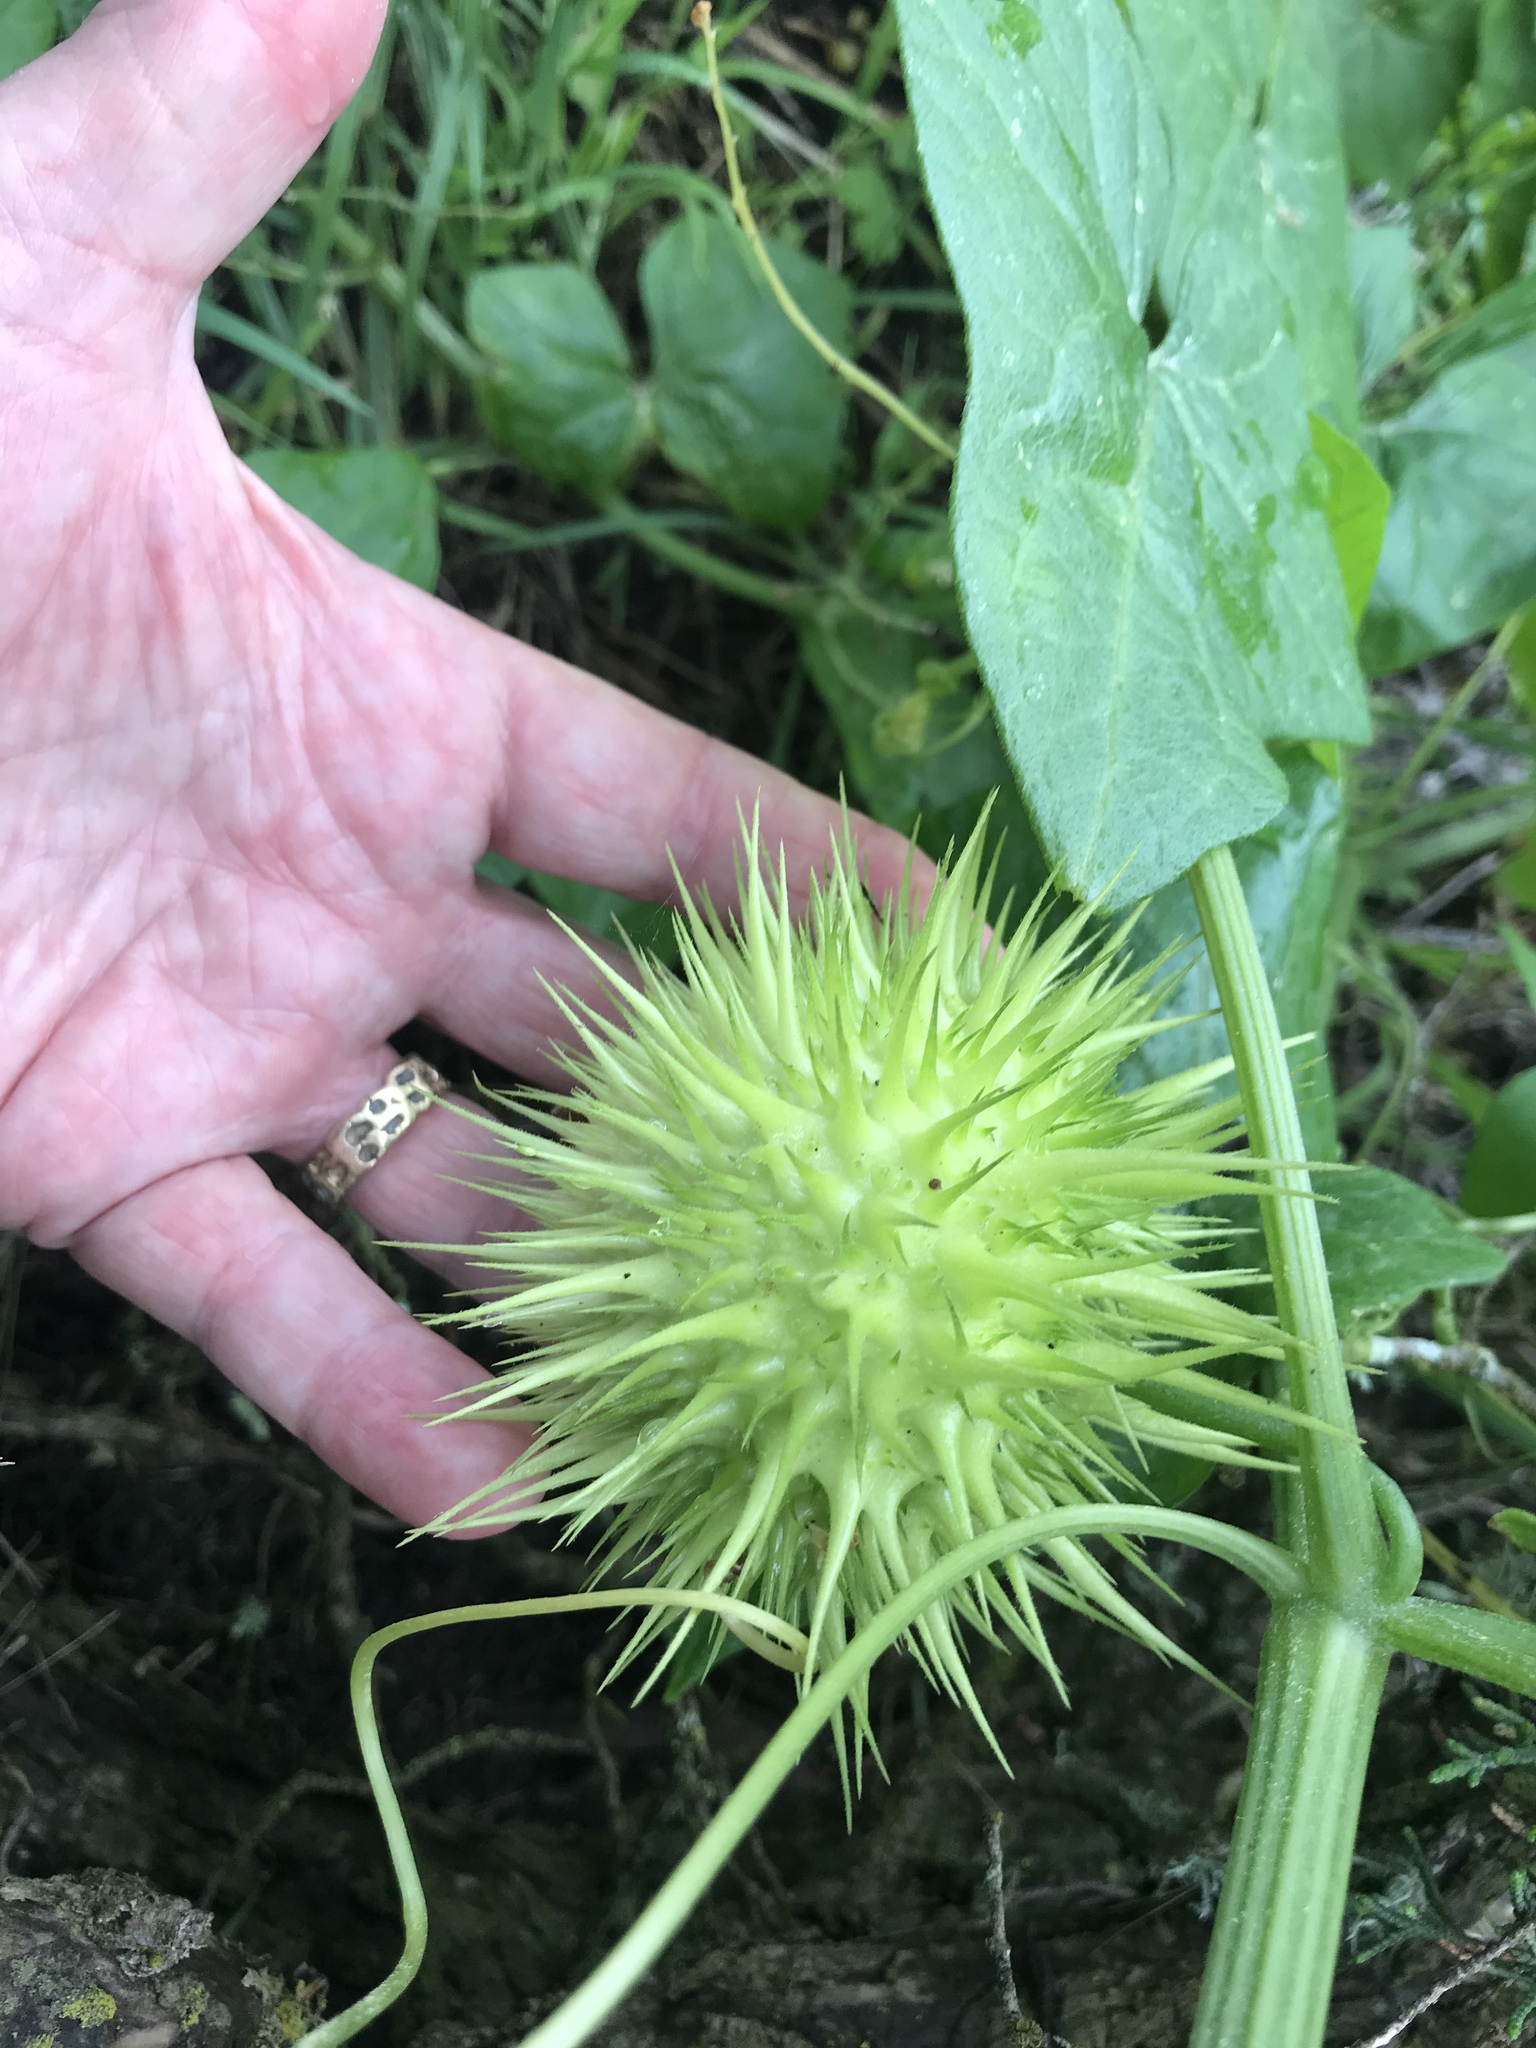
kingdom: Plantae
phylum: Tracheophyta
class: Magnoliopsida
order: Cucurbitales
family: Cucurbitaceae
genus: Marah
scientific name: Marah fabacea
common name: California manroot
